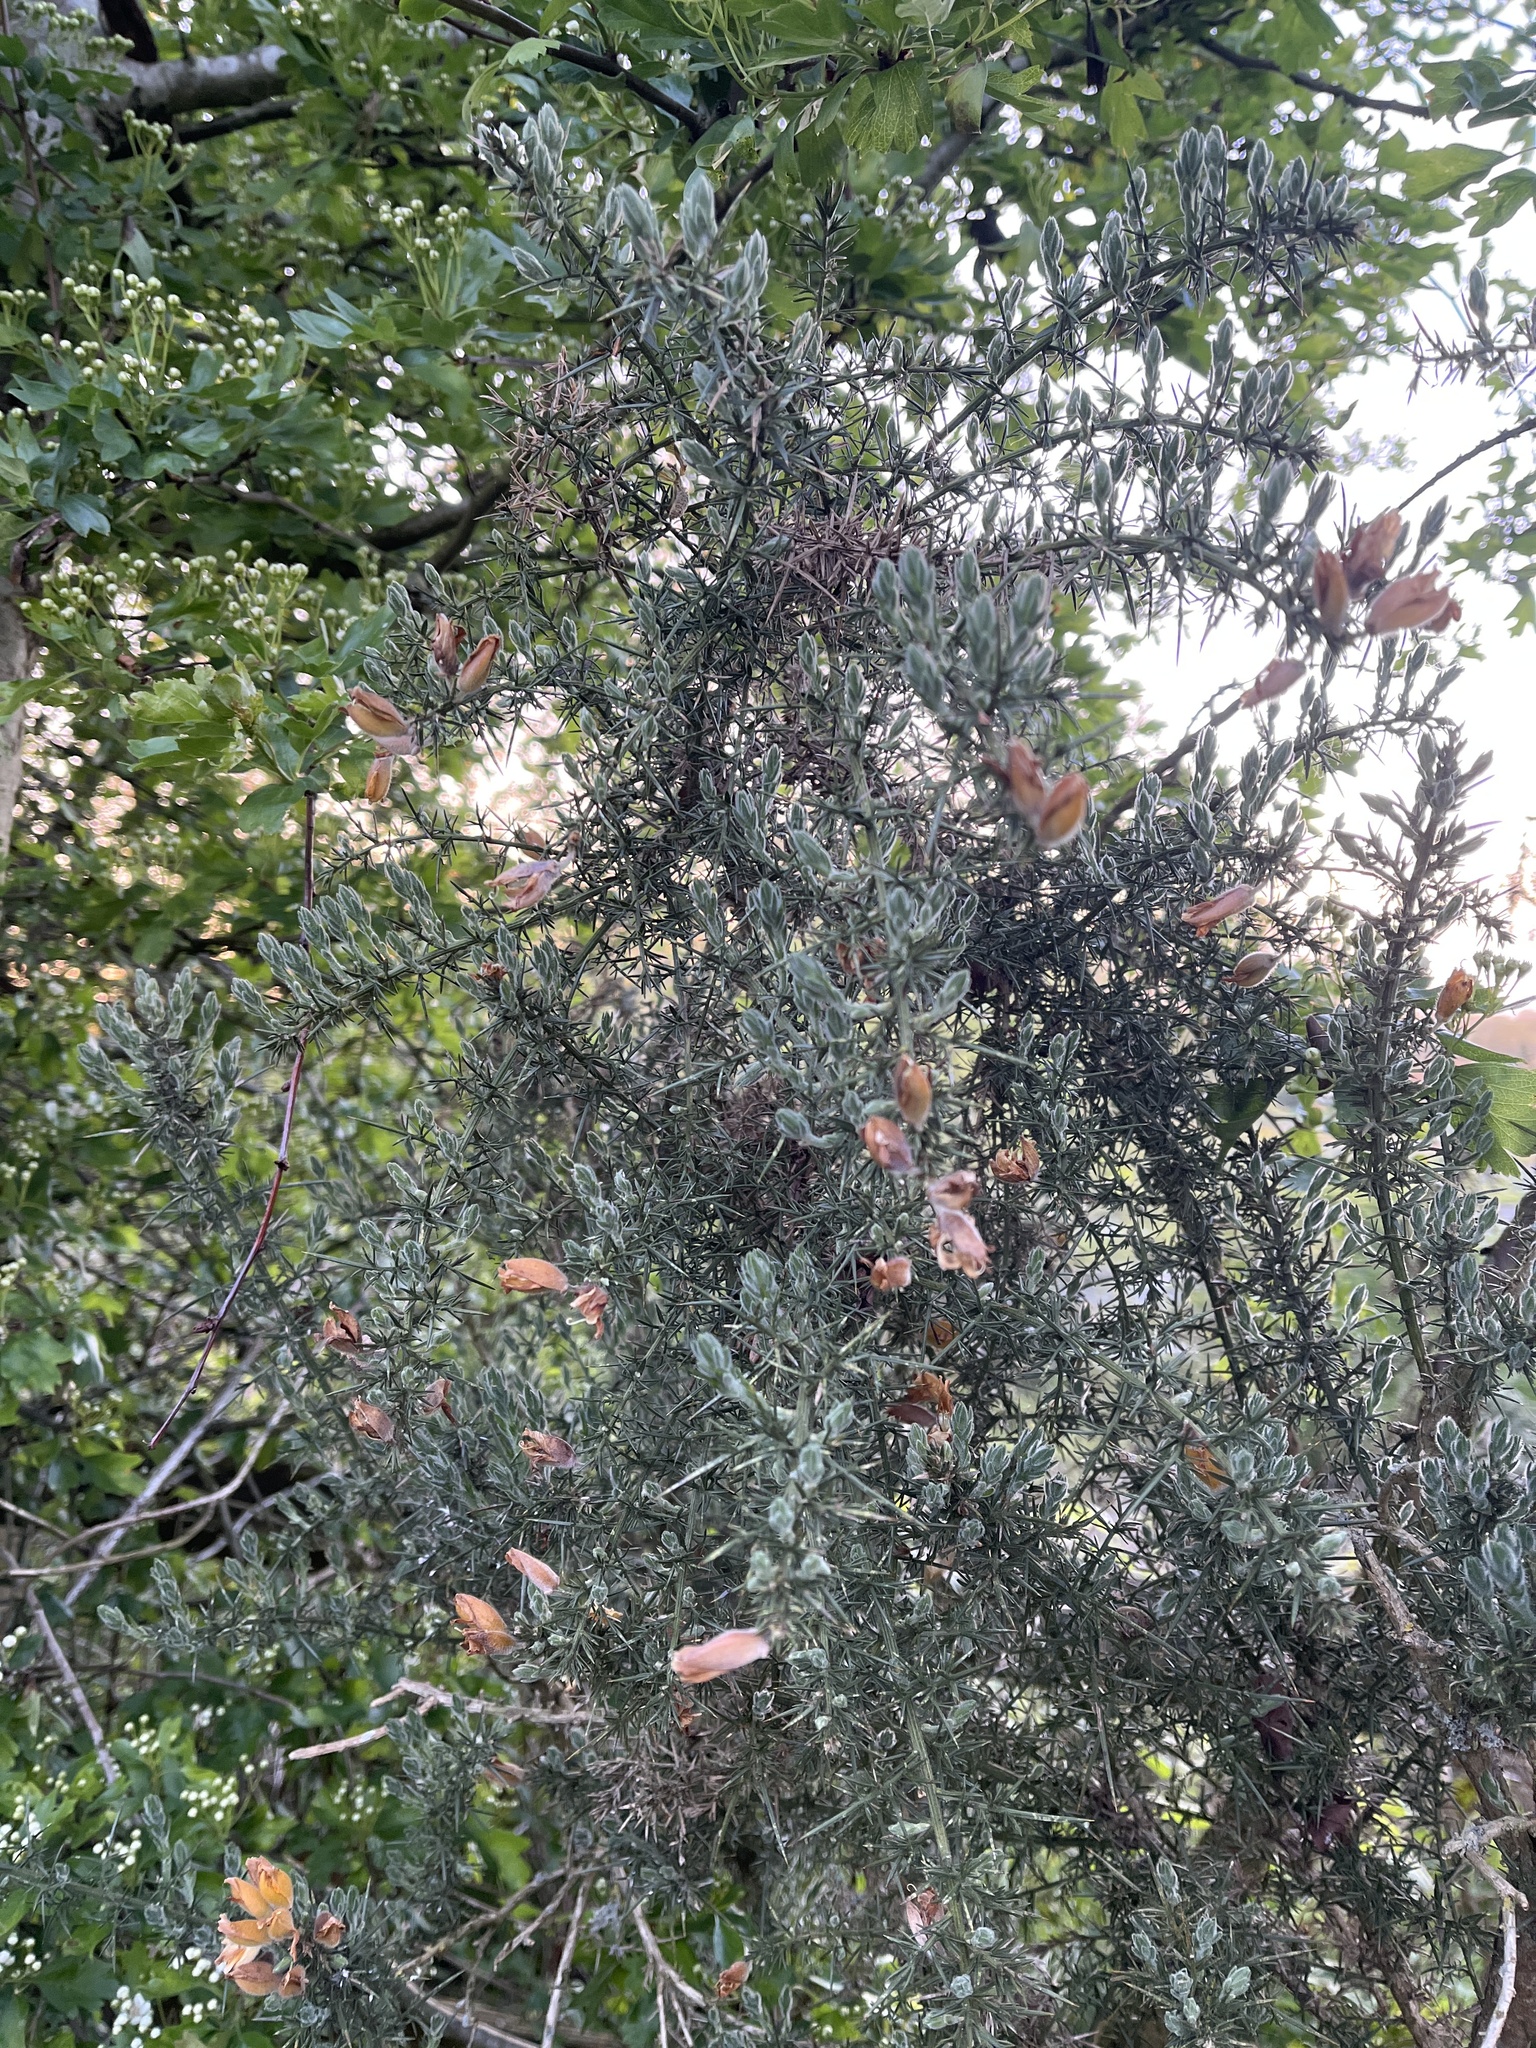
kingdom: Plantae
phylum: Tracheophyta
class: Magnoliopsida
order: Fabales
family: Fabaceae
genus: Ulex
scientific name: Ulex europaeus
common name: Common gorse
